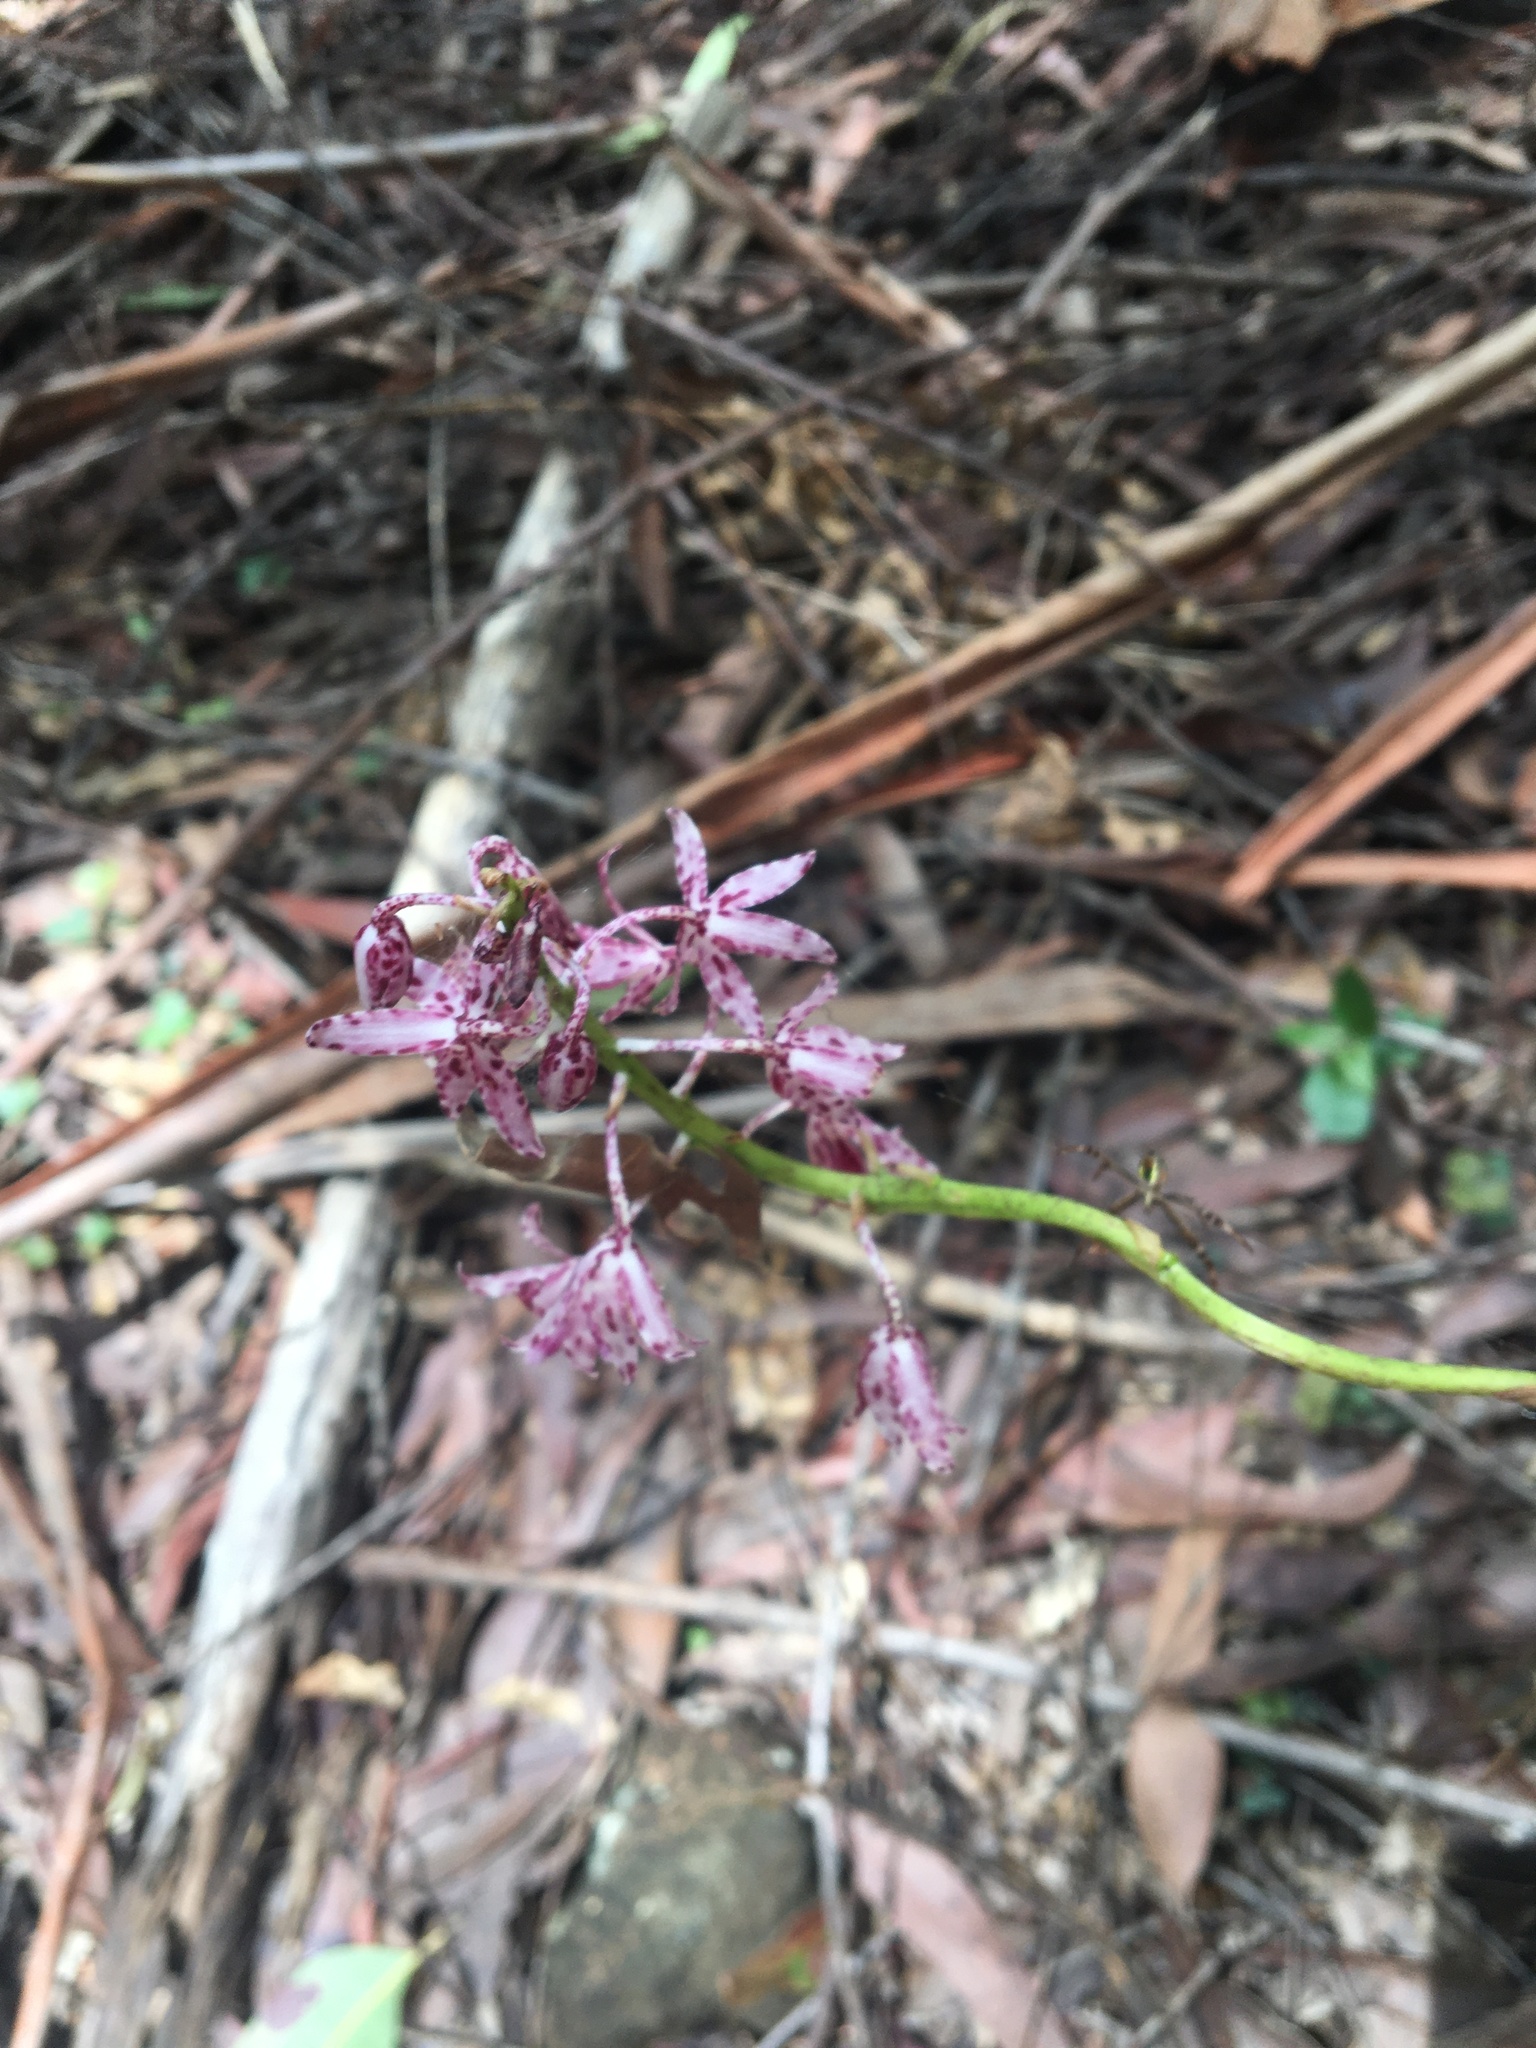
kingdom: Plantae
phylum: Tracheophyta
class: Liliopsida
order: Asparagales
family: Orchidaceae
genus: Dipodium
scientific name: Dipodium variegatum
